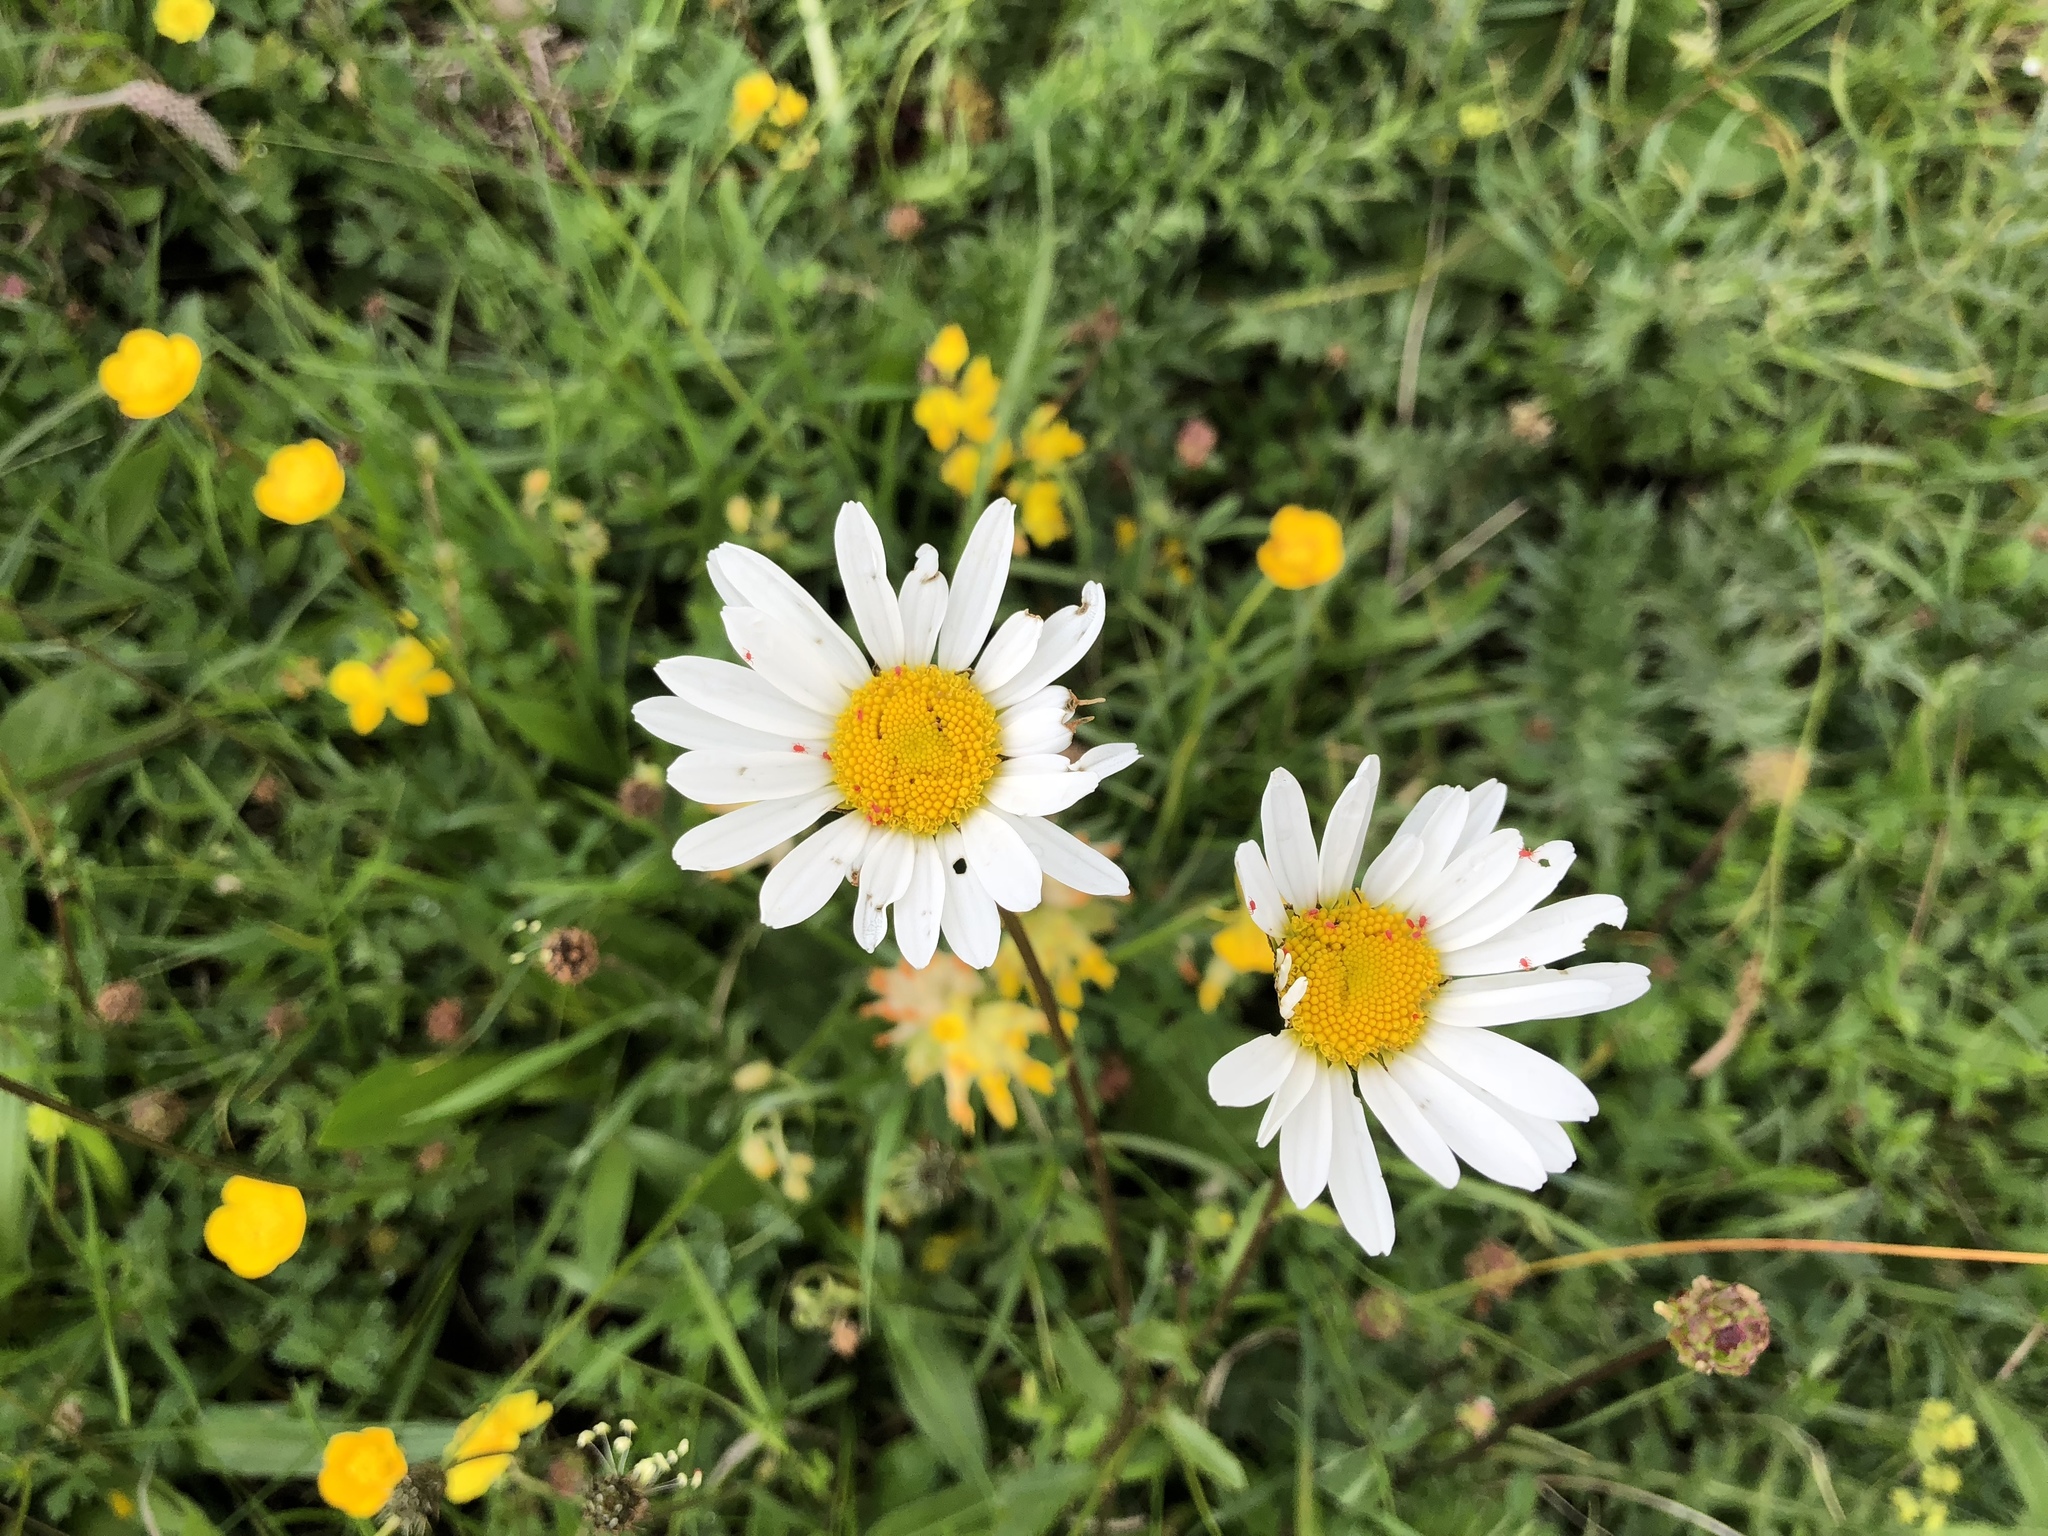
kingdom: Plantae
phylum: Tracheophyta
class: Magnoliopsida
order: Asterales
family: Asteraceae
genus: Leucanthemum
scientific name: Leucanthemum vulgare
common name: Oxeye daisy
